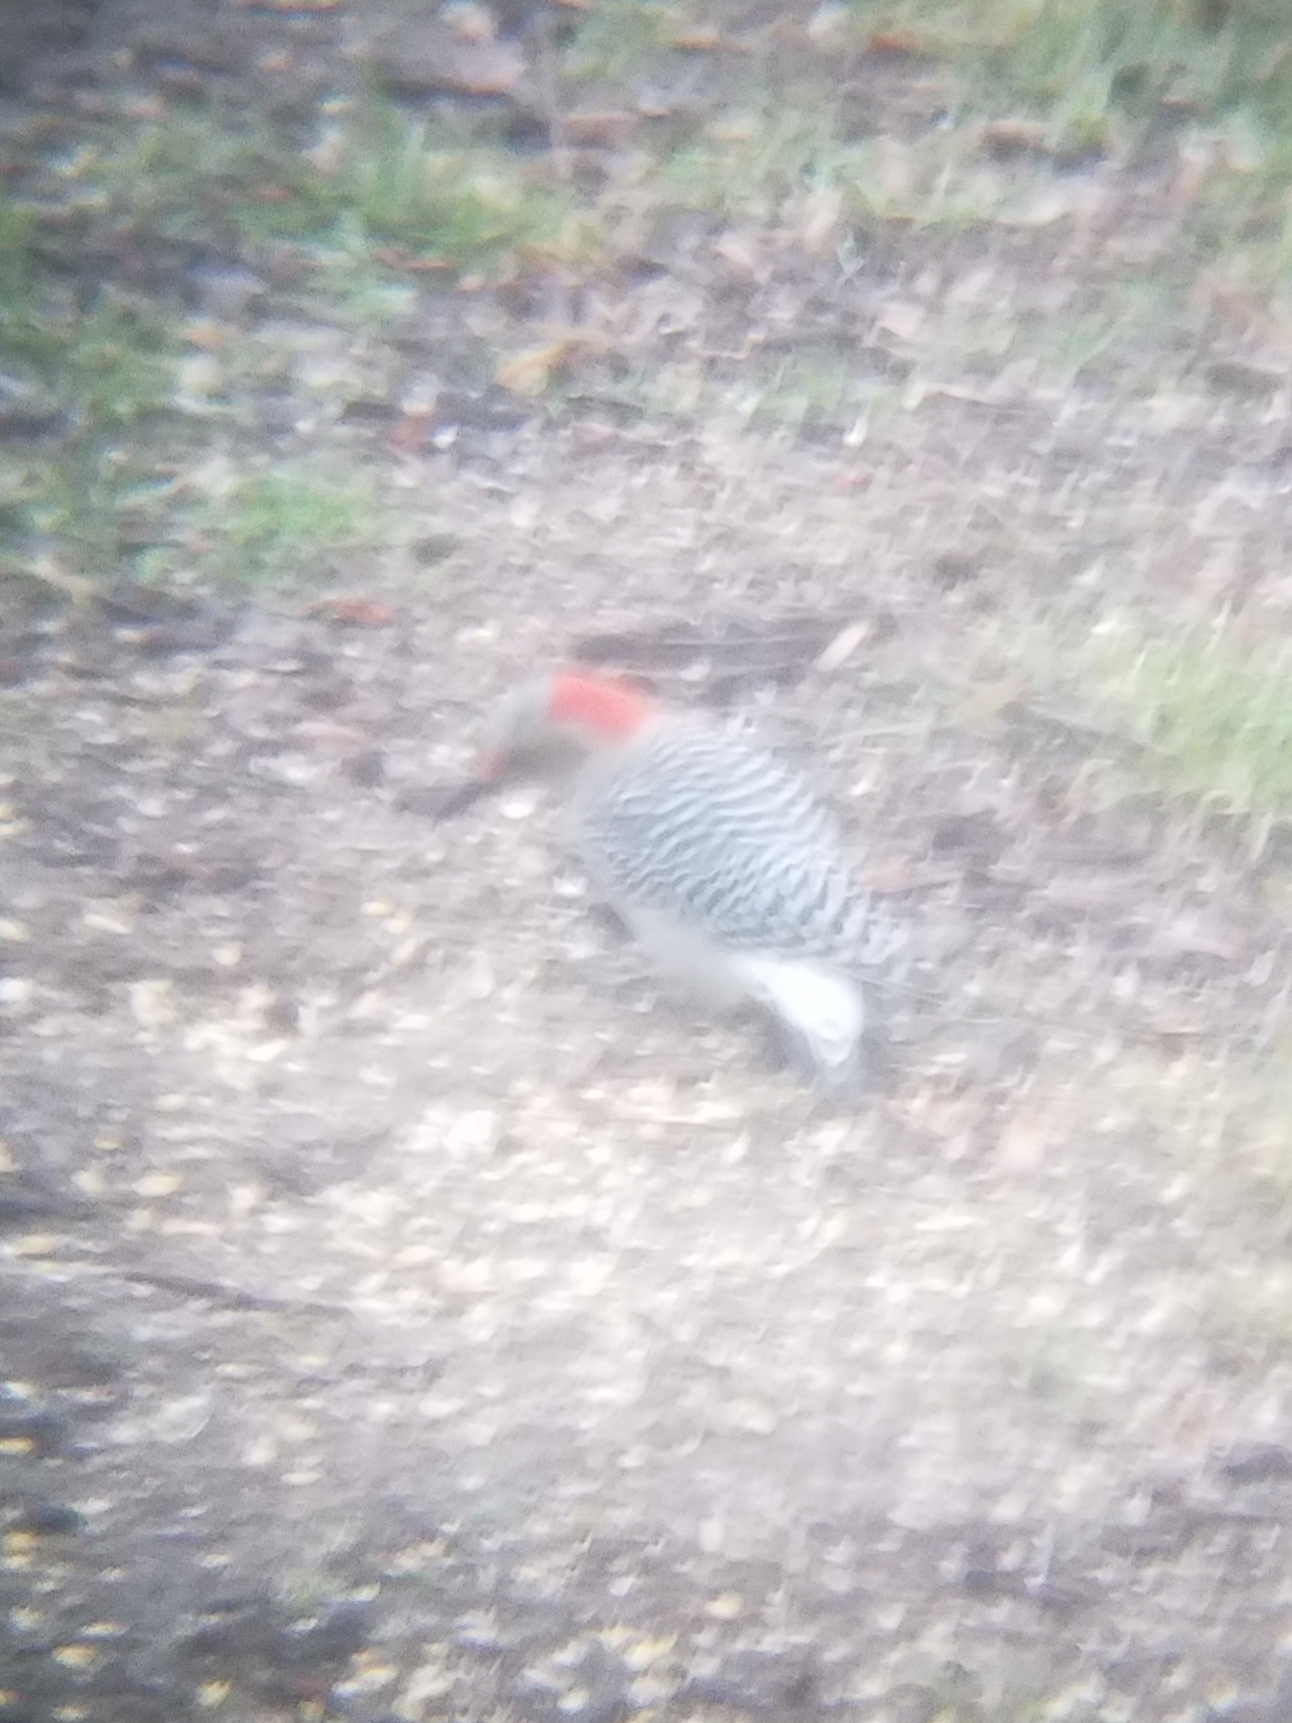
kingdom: Animalia
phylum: Chordata
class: Aves
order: Piciformes
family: Picidae
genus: Melanerpes
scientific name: Melanerpes carolinus
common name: Red-bellied woodpecker
